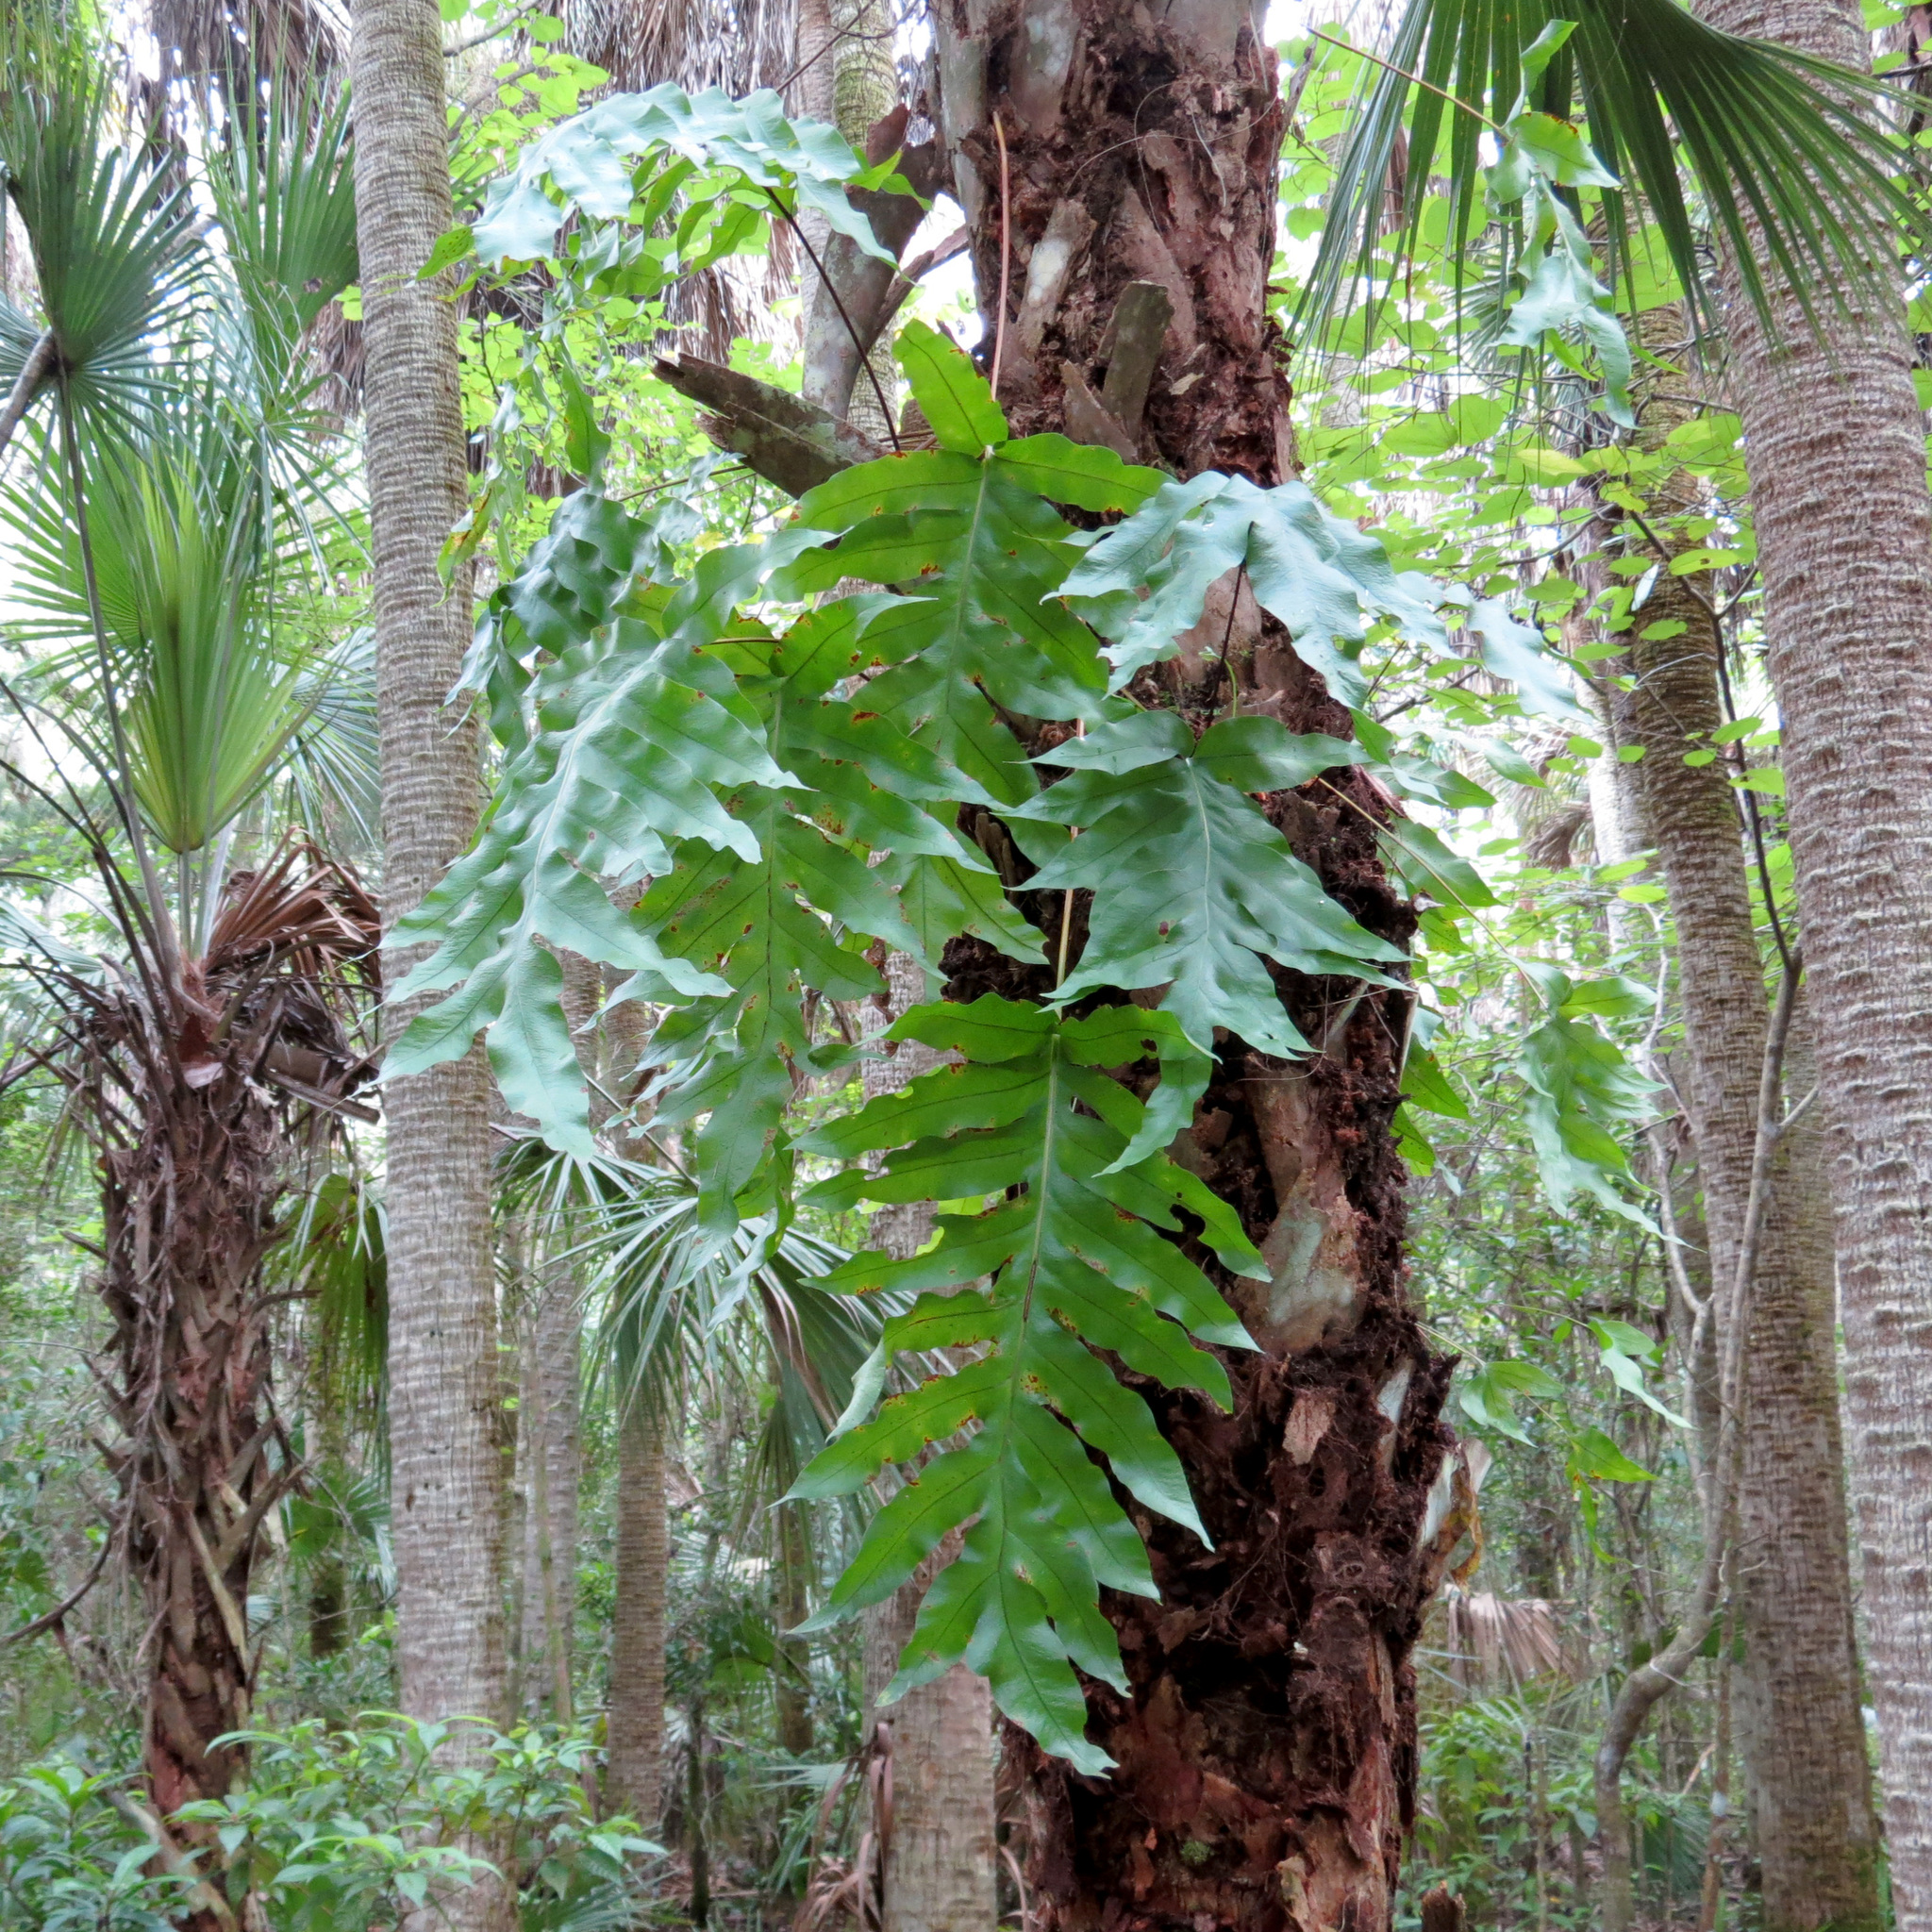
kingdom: Plantae
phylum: Tracheophyta
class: Polypodiopsida
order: Polypodiales
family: Polypodiaceae
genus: Phlebodium
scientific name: Phlebodium aureum
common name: Gold-foot fern
